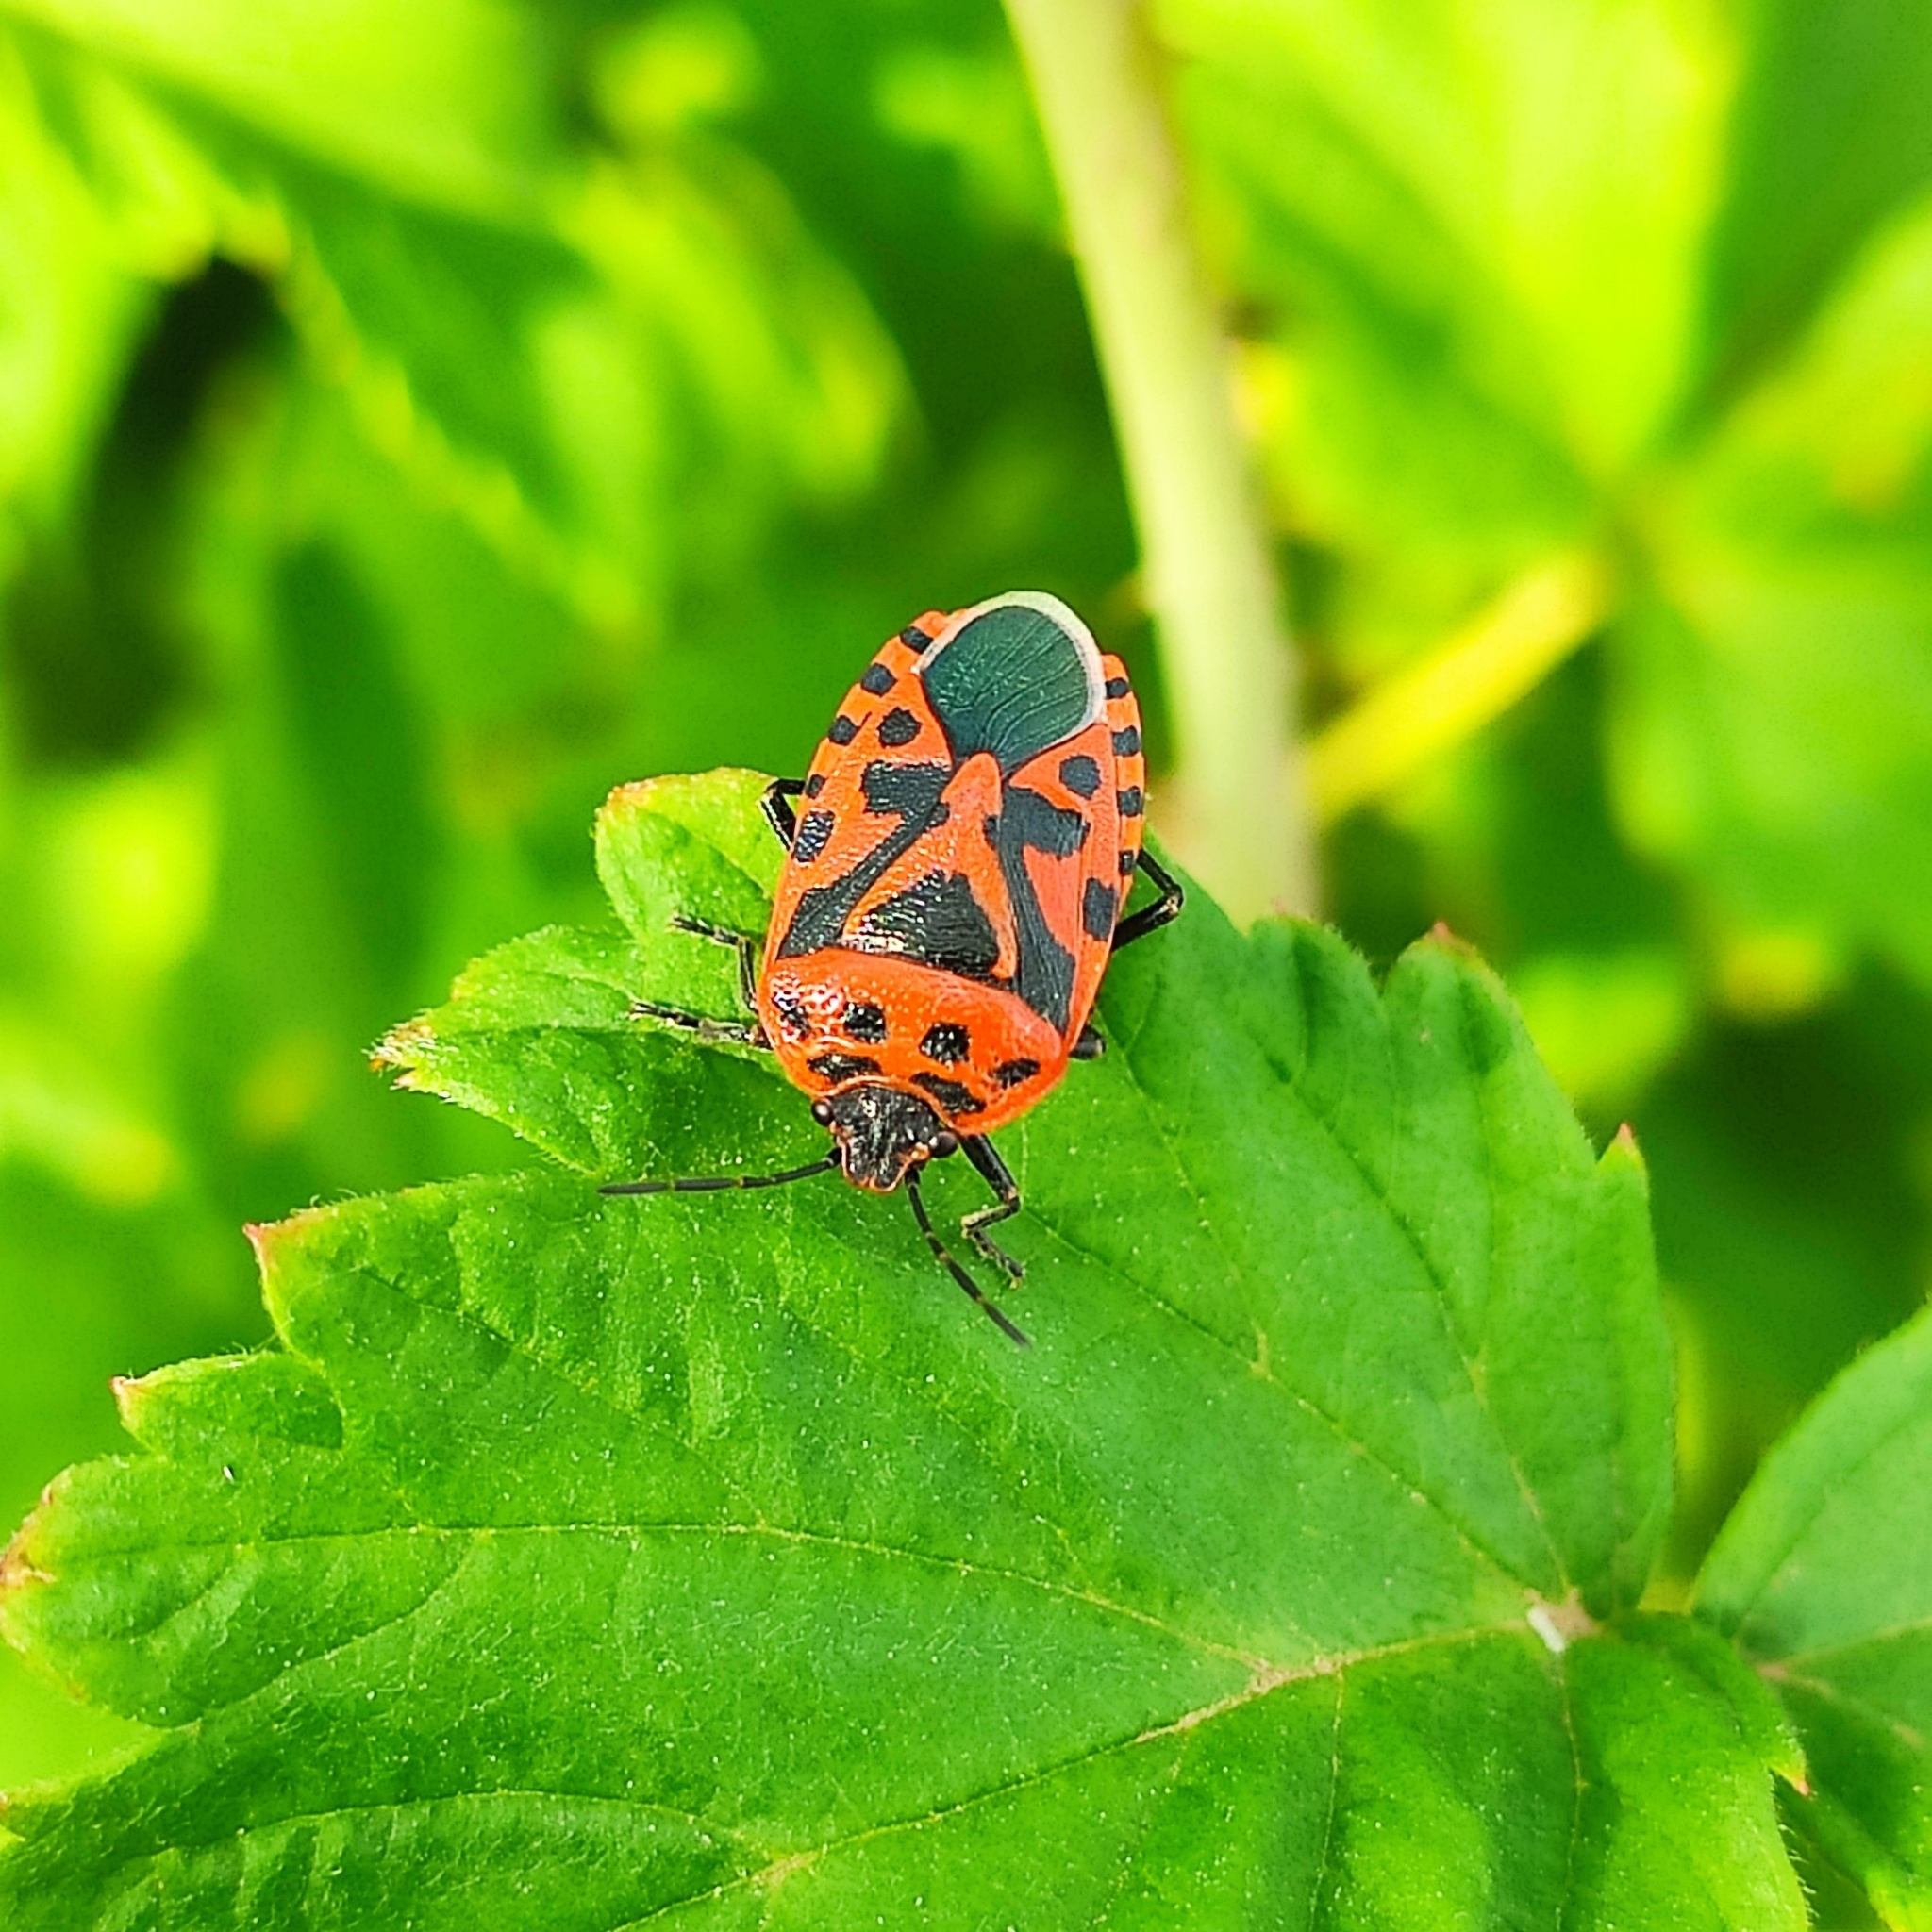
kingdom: Animalia
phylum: Arthropoda
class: Insecta
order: Hemiptera
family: Pentatomidae
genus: Eurydema
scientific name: Eurydema ventralis
